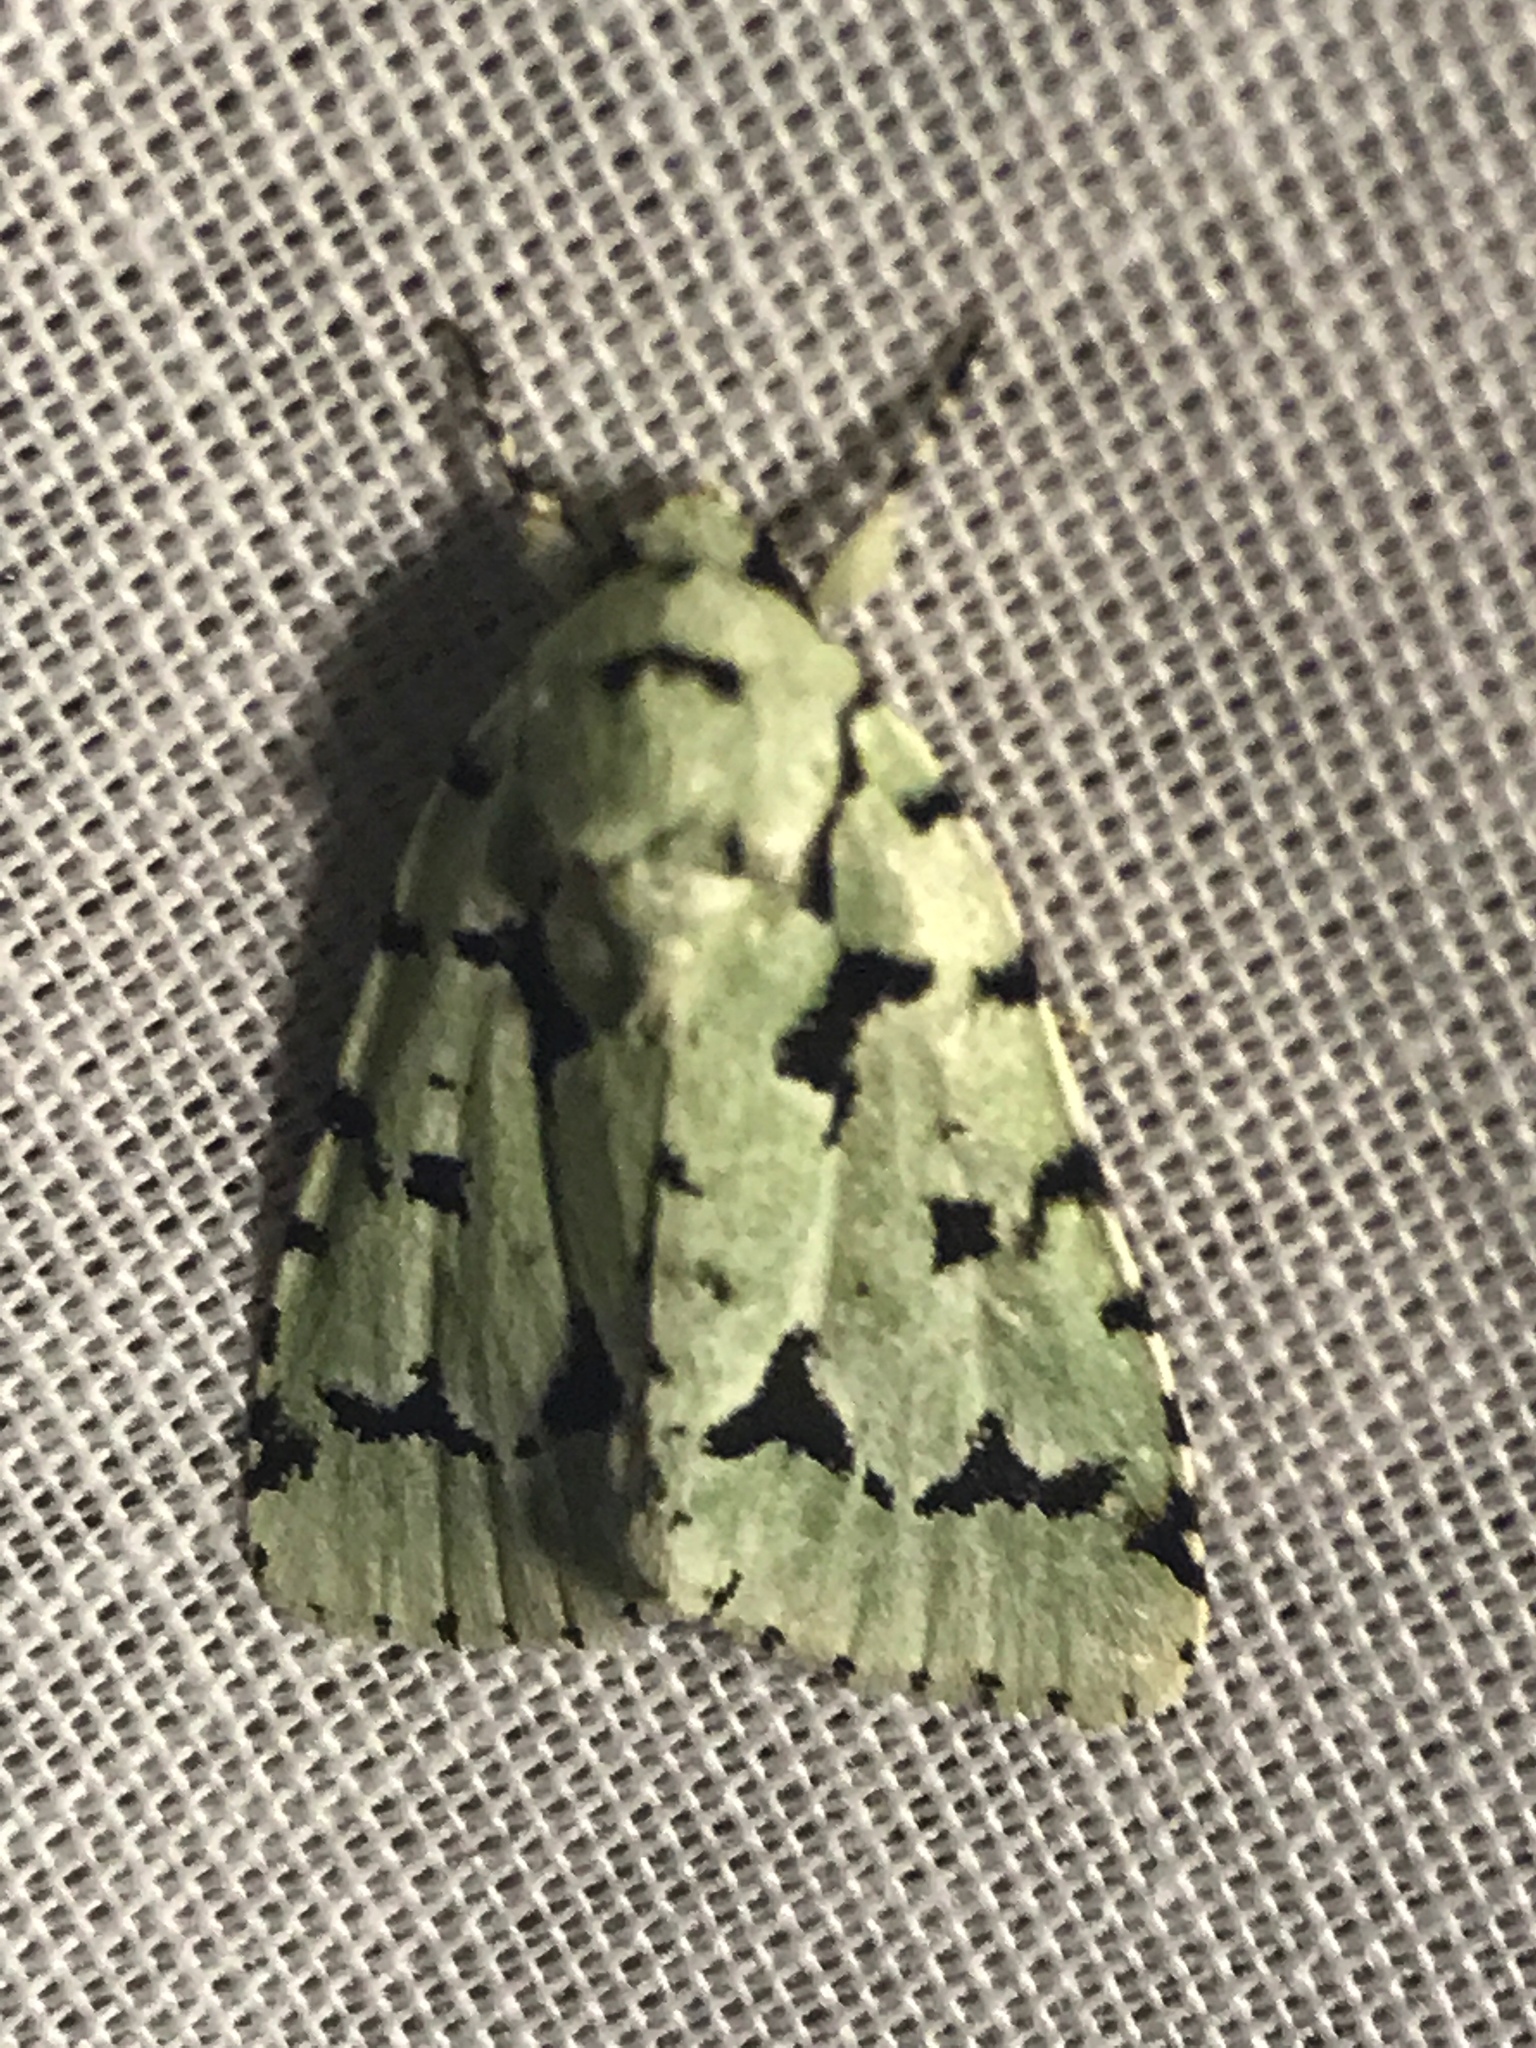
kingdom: Animalia
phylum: Arthropoda
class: Insecta
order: Lepidoptera
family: Noctuidae
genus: Acronicta
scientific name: Acronicta fallax
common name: Green marvel
